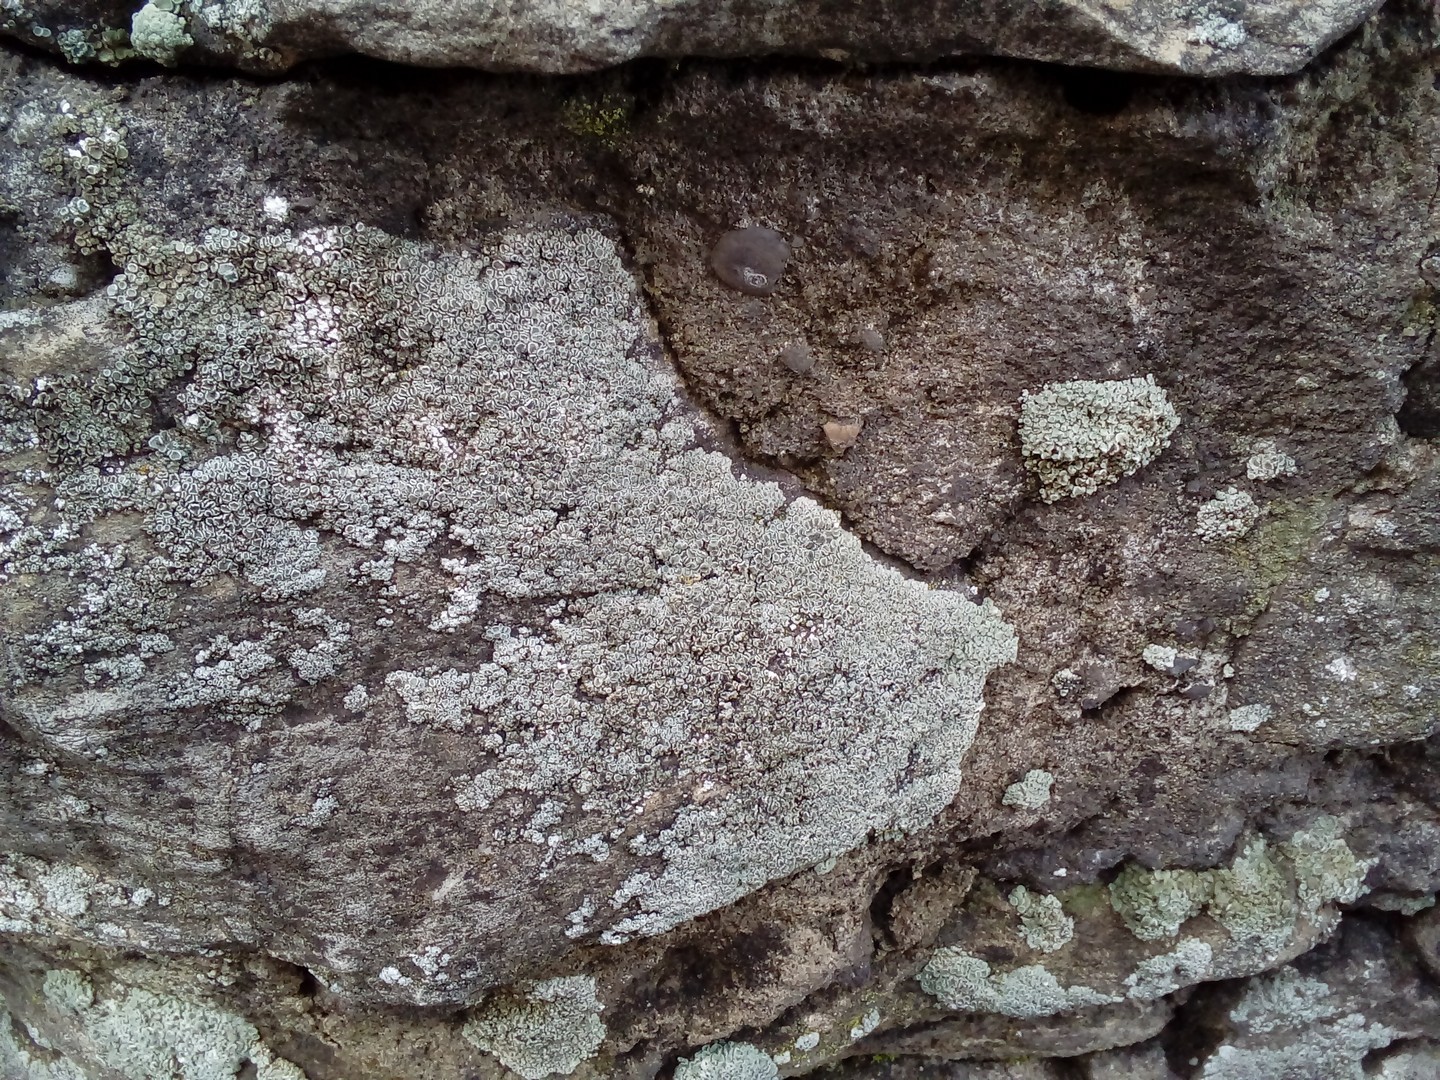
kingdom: Fungi
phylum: Ascomycota
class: Lecanoromycetes
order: Lecanorales
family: Lecanoraceae
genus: Polyozosia
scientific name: Polyozosia albescens
